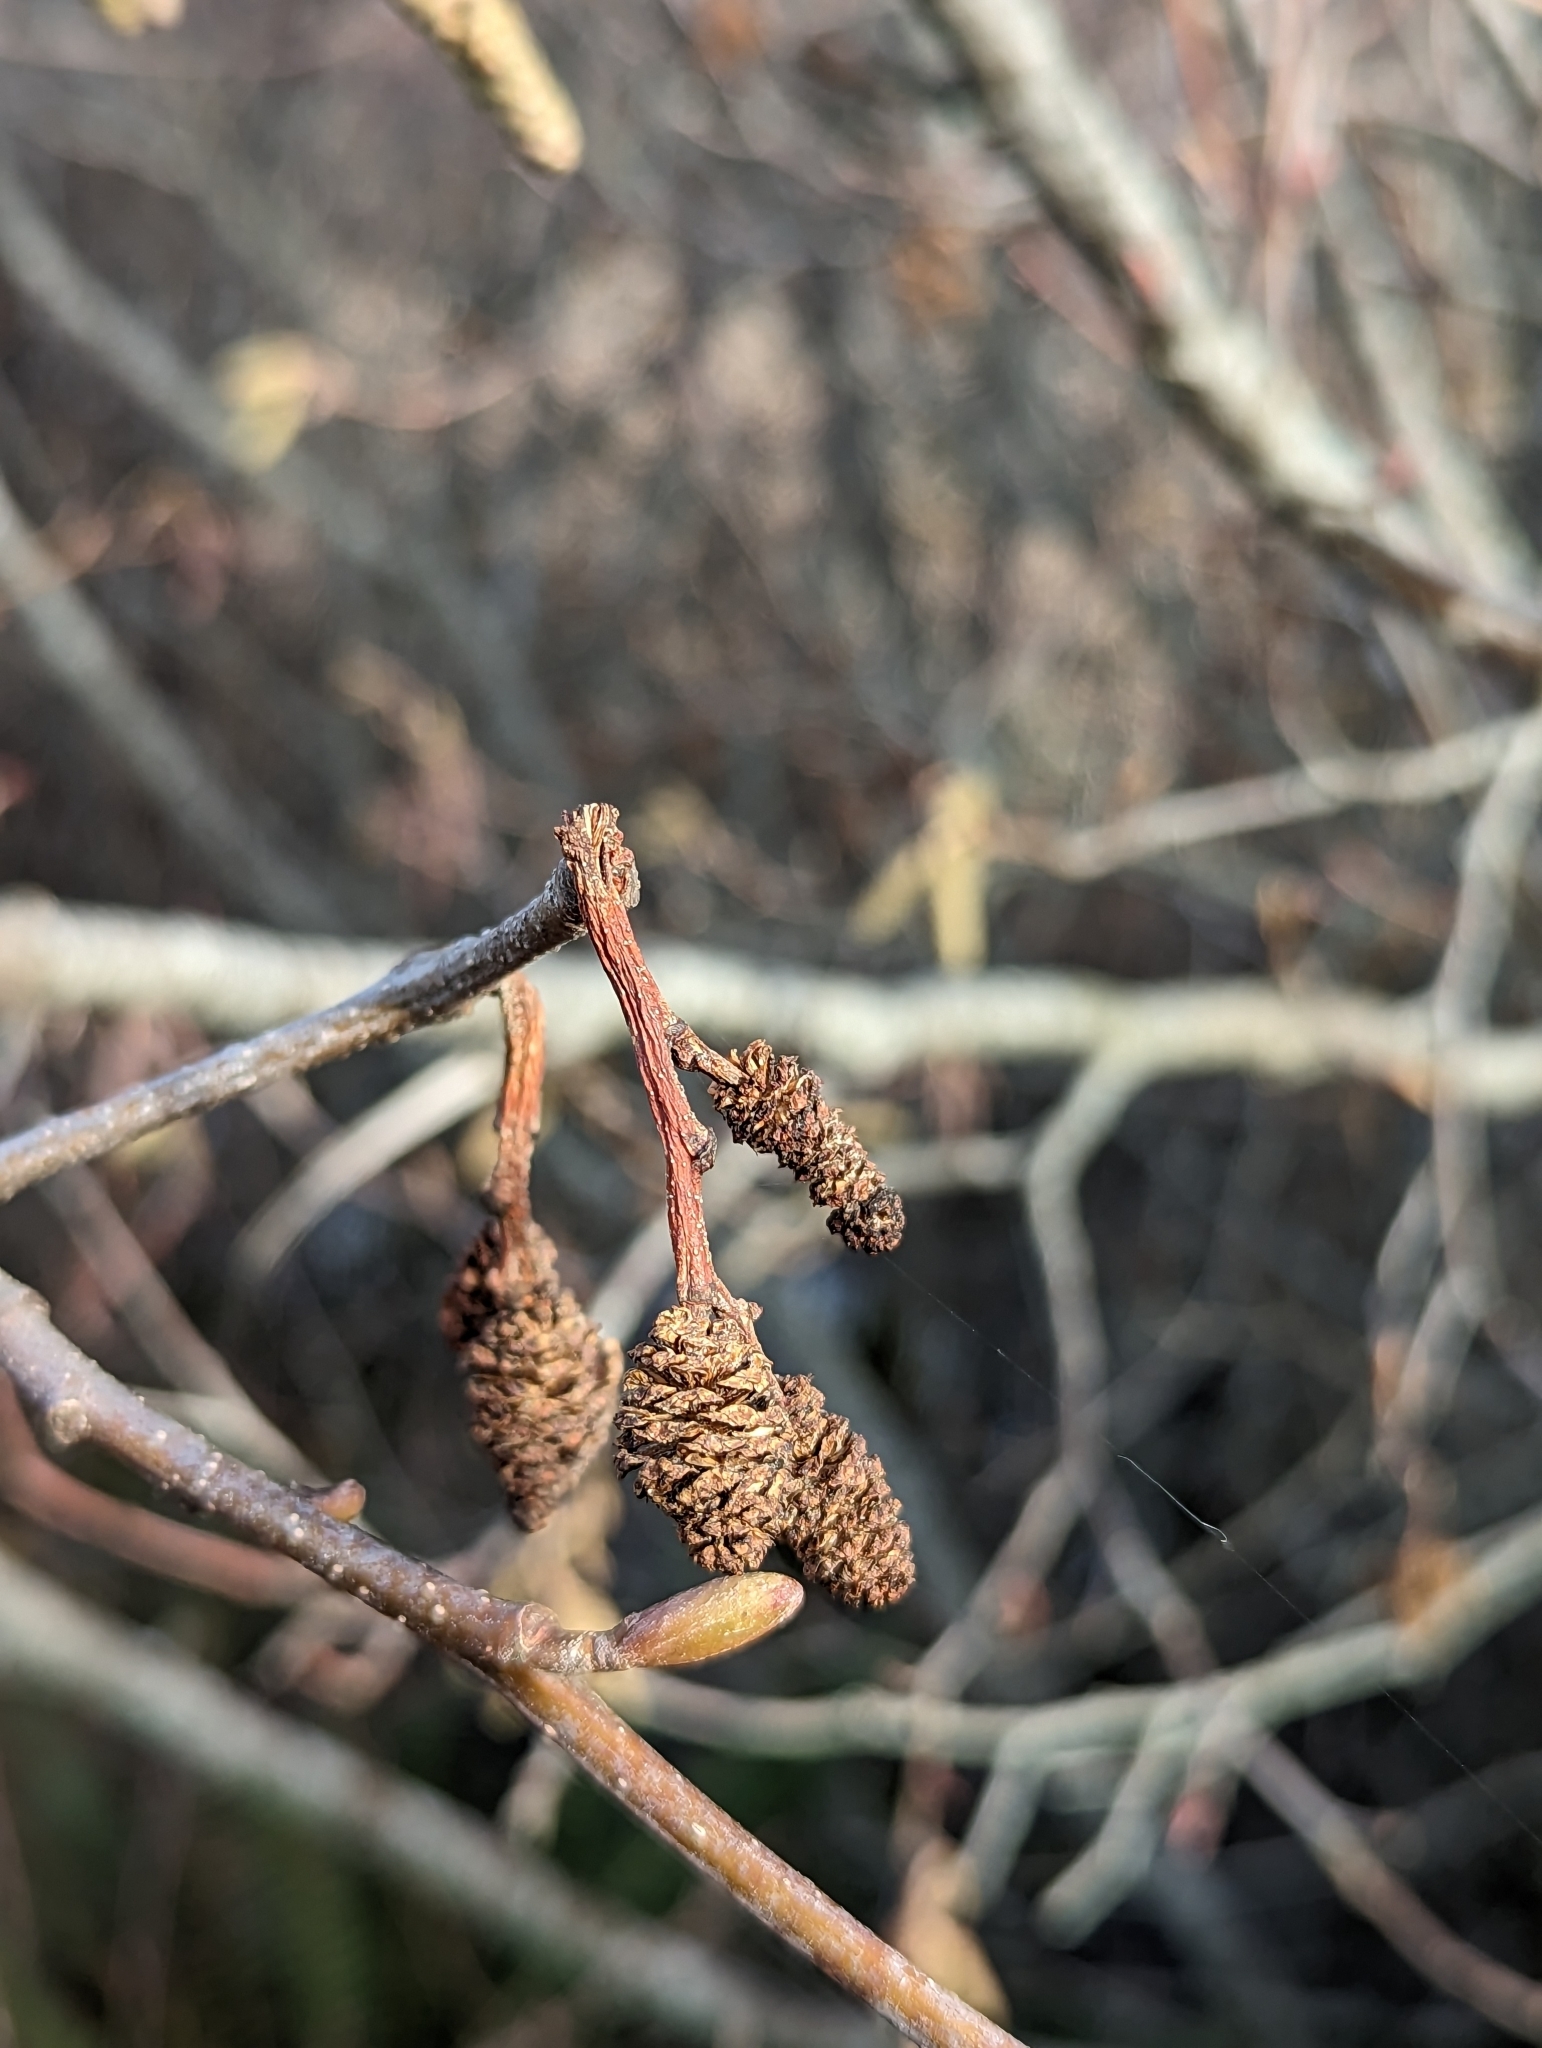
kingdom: Plantae
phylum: Tracheophyta
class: Magnoliopsida
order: Fagales
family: Betulaceae
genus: Alnus
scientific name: Alnus rubra
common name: Red alder
